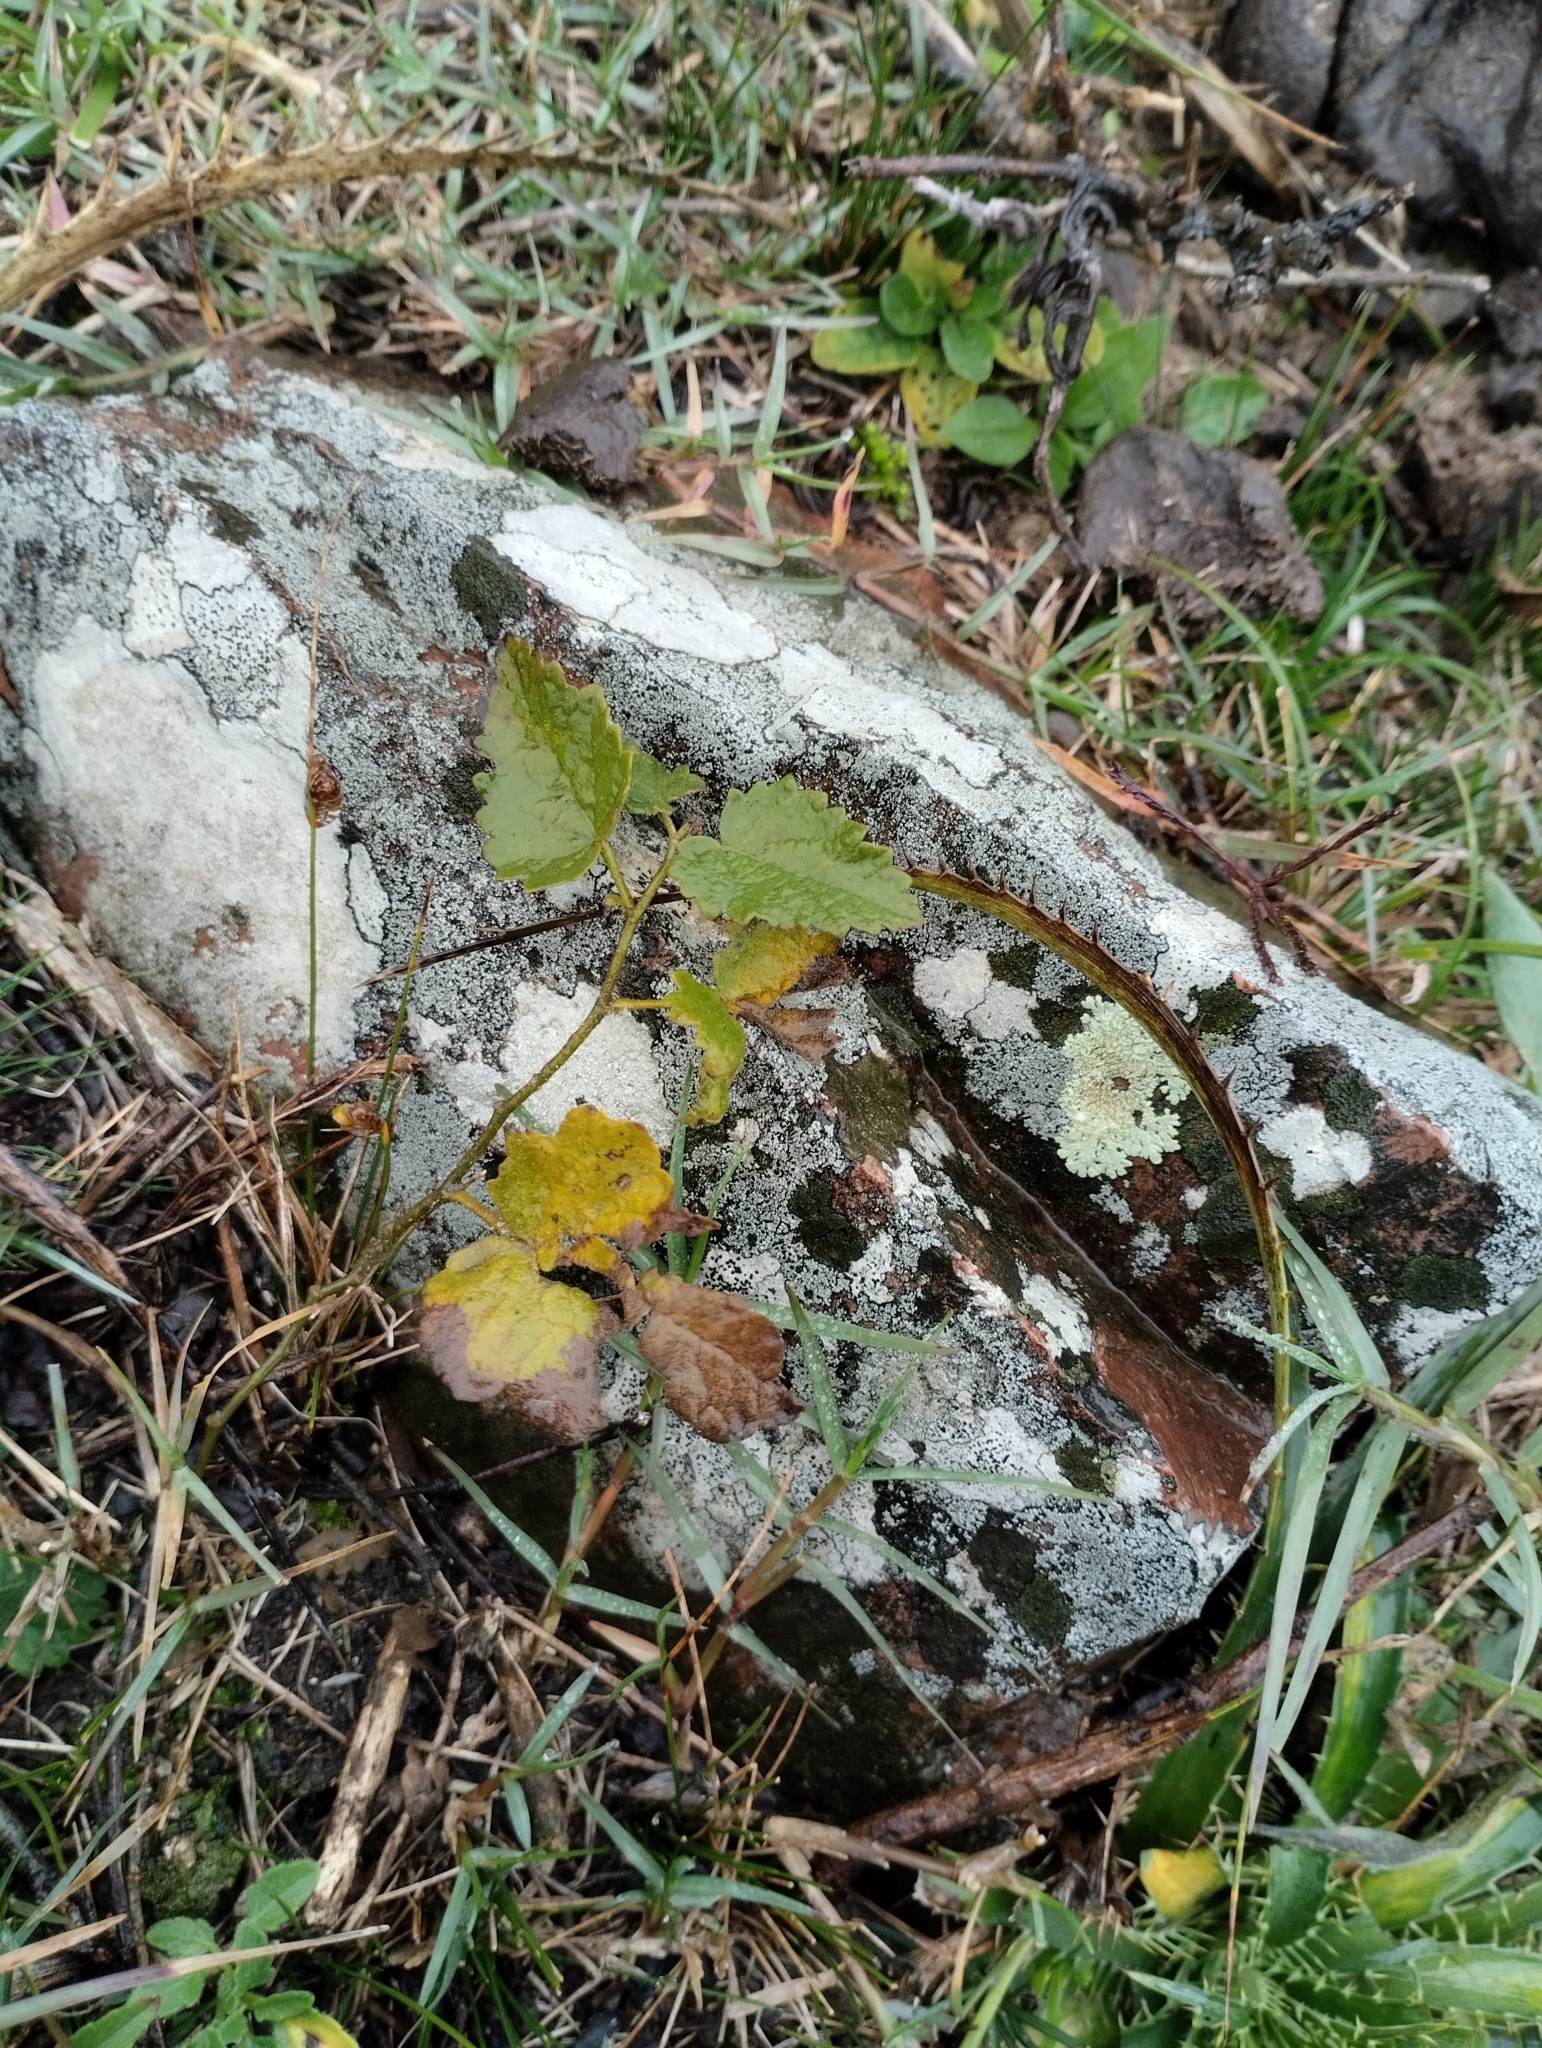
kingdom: Plantae
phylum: Tracheophyta
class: Magnoliopsida
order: Malvales
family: Malvaceae
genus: Krapovickasia
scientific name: Krapovickasia flavescens
